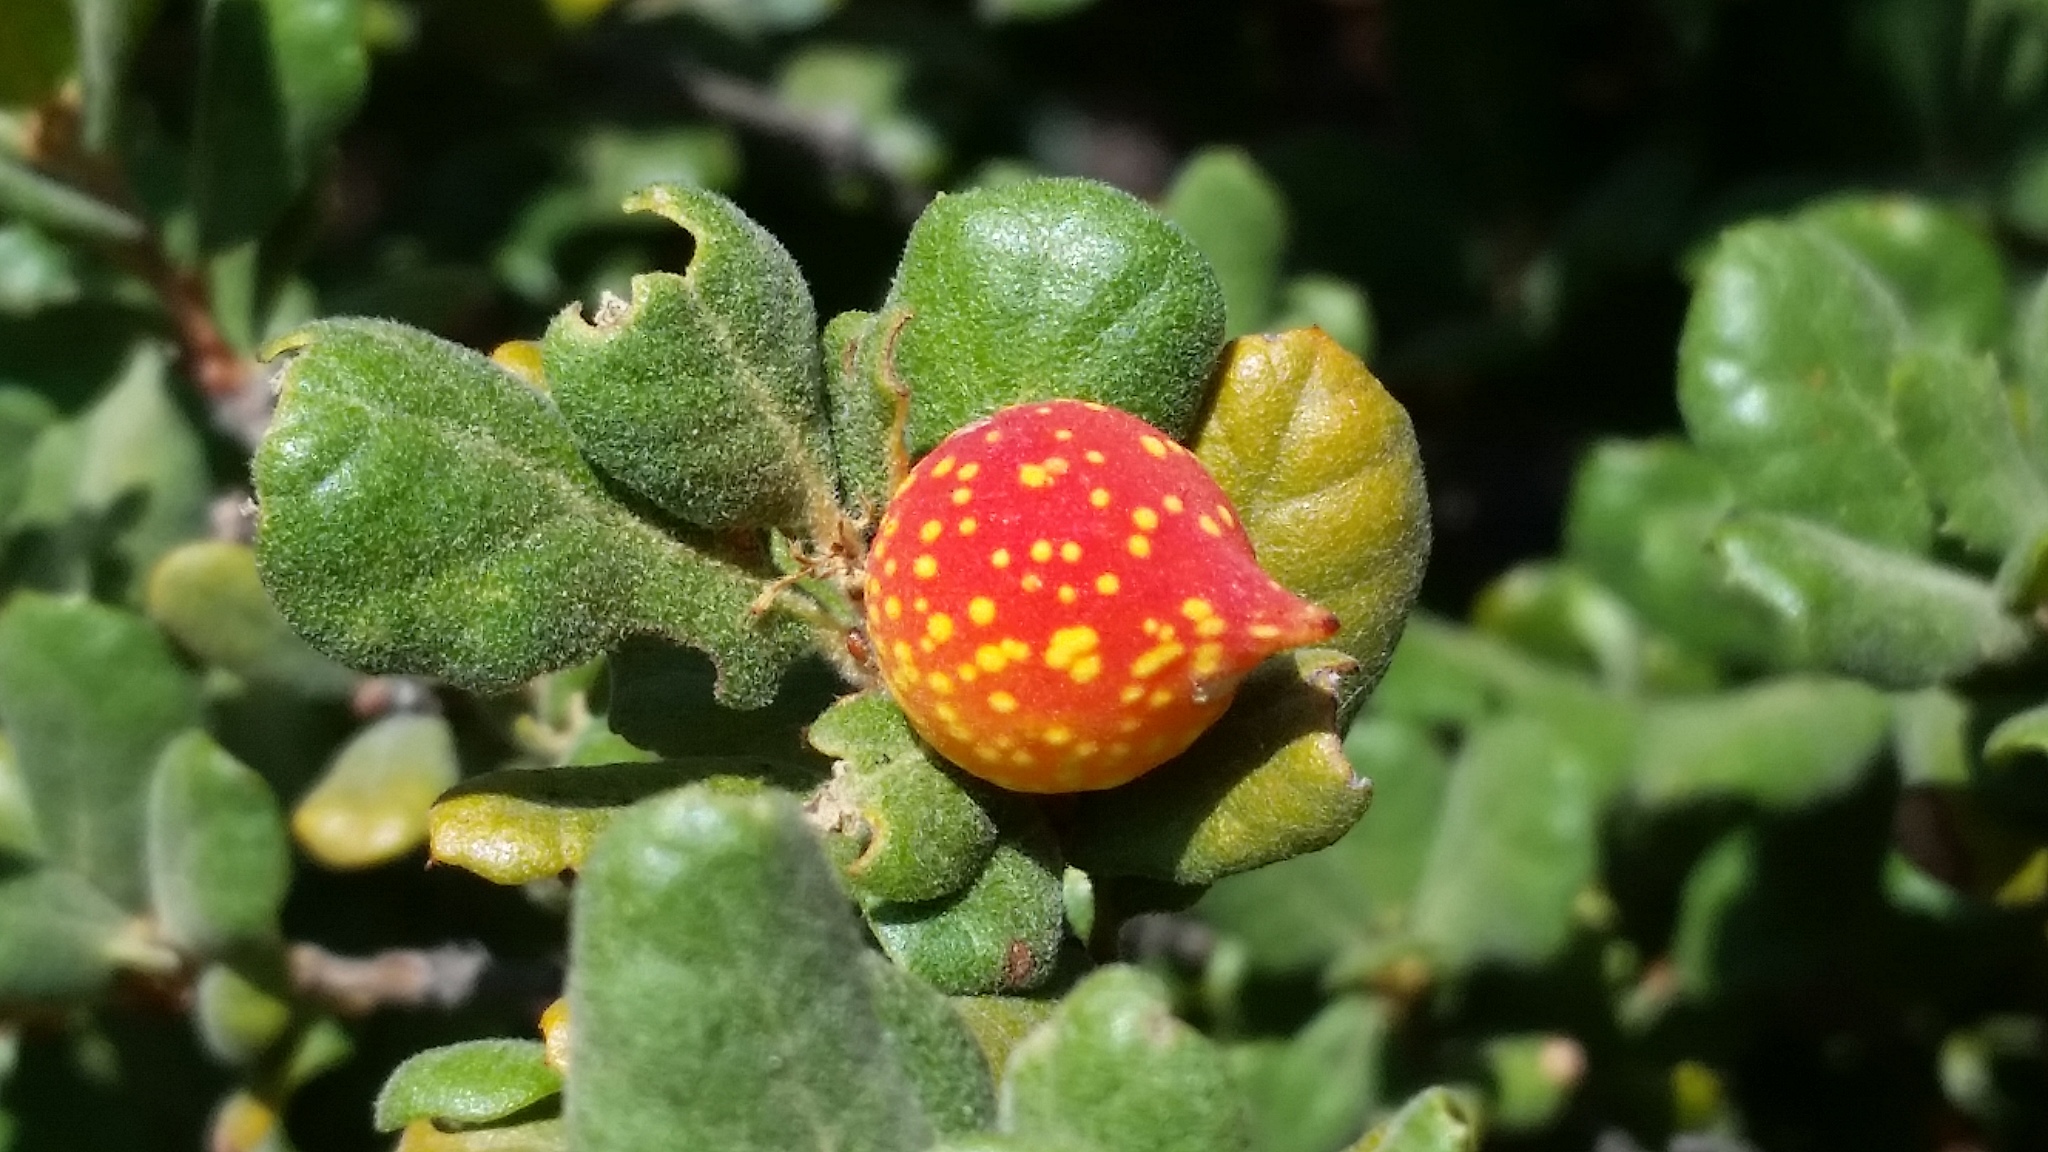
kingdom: Animalia
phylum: Arthropoda
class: Insecta
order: Hymenoptera
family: Cynipidae
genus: Burnettweldia
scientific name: Burnettweldia
